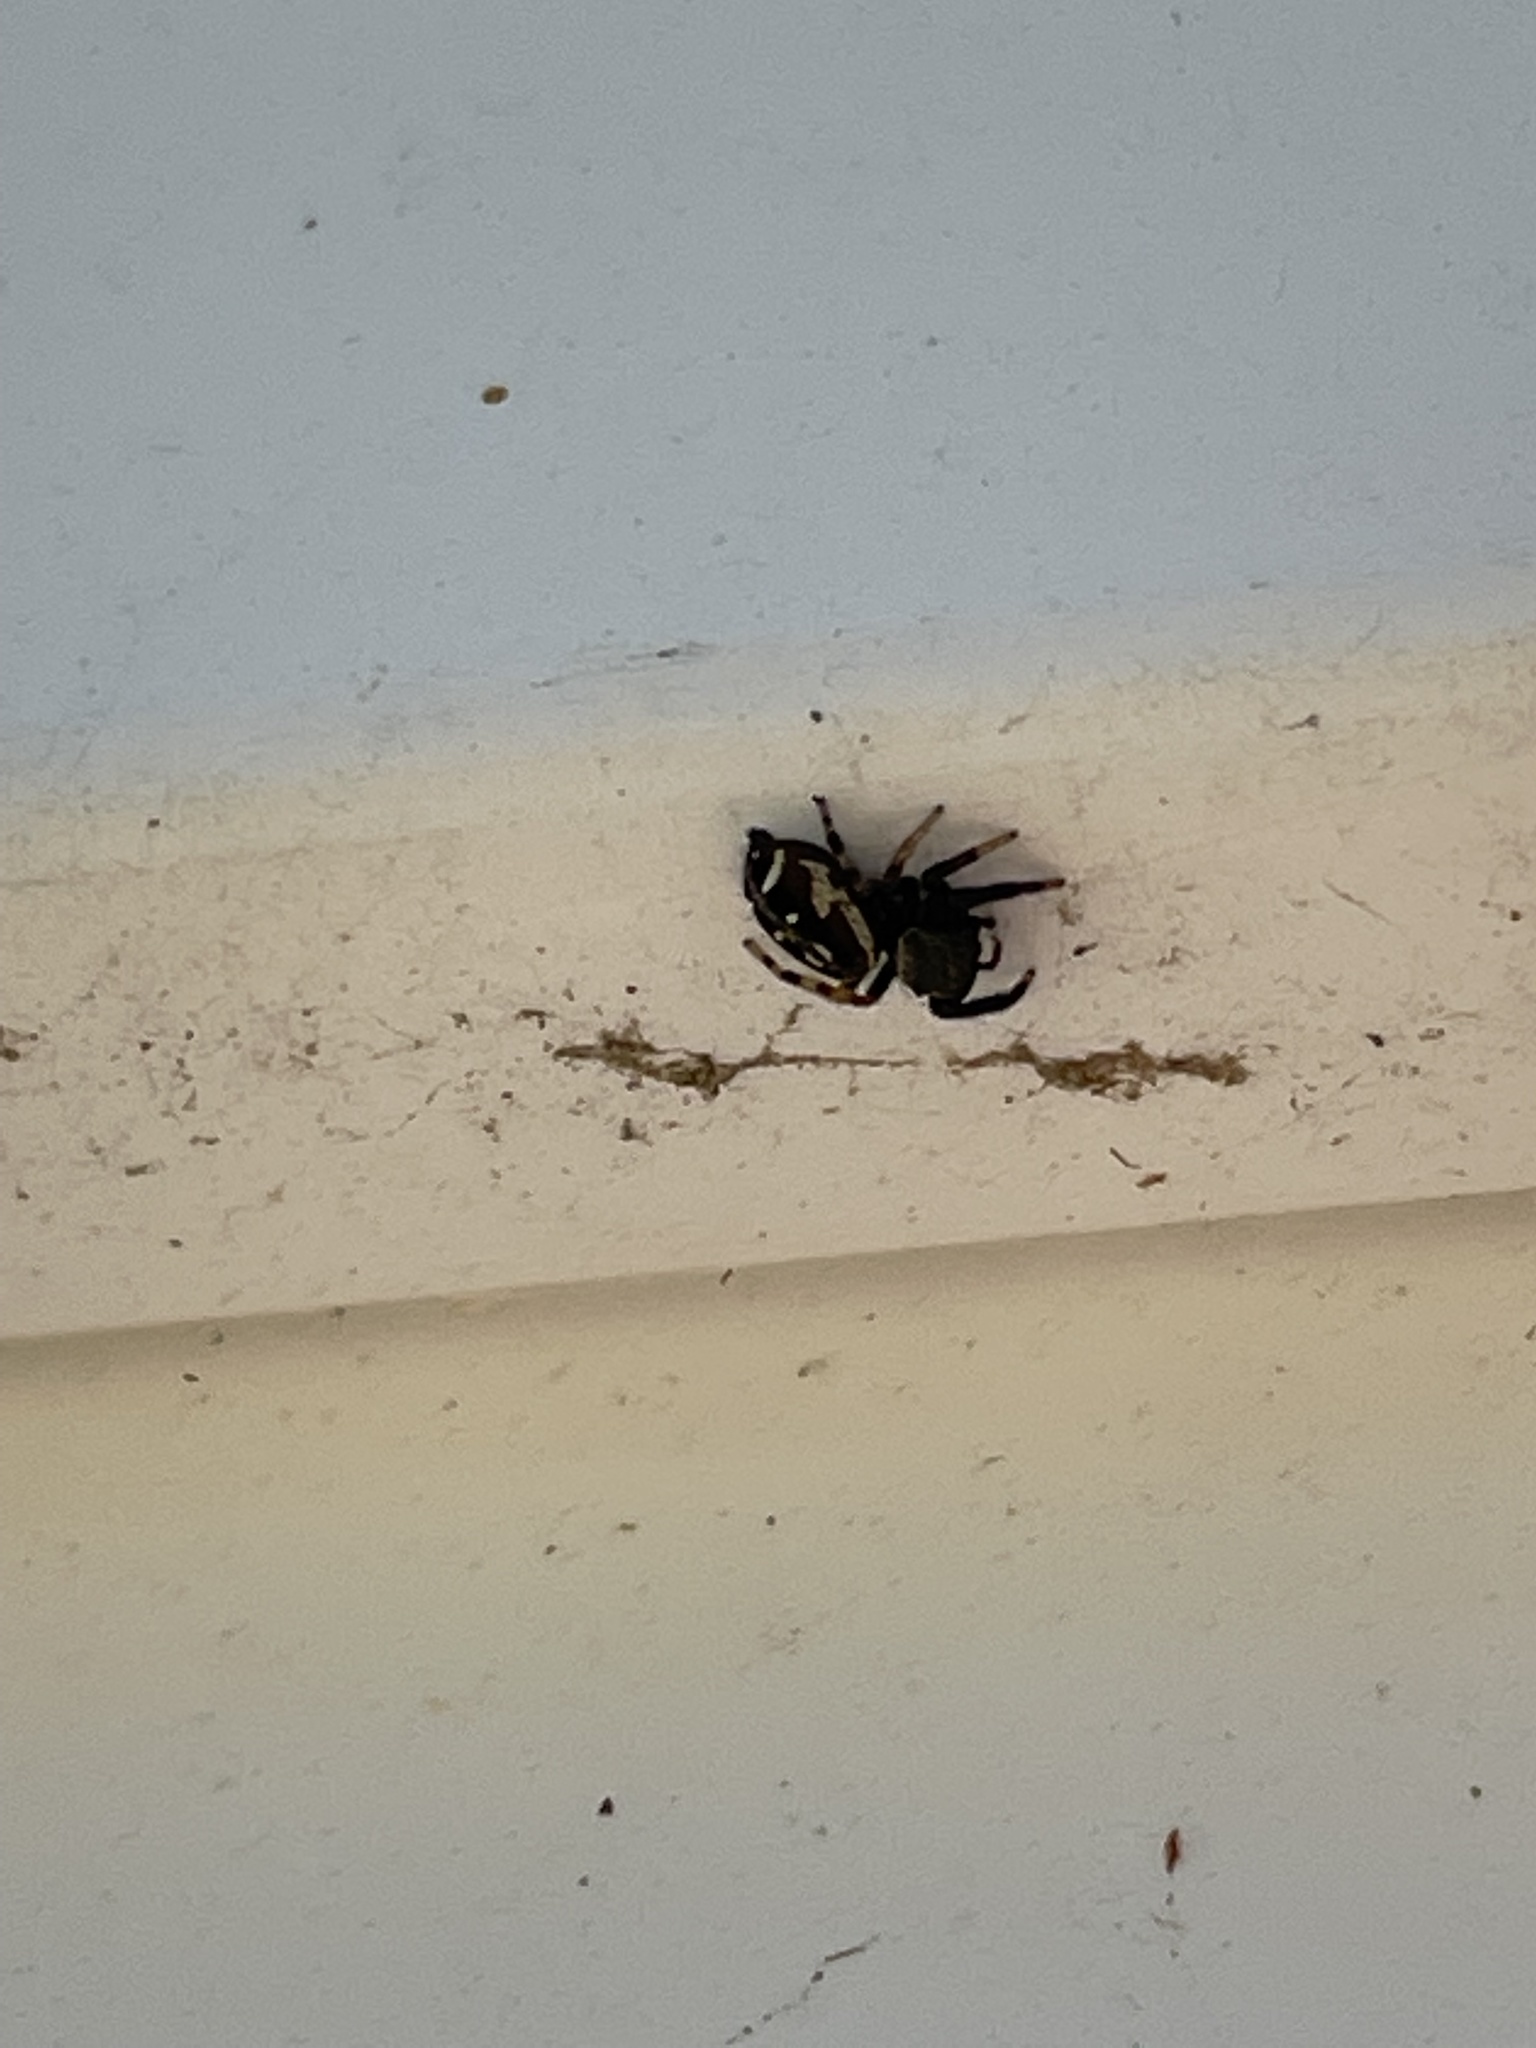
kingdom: Animalia
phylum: Arthropoda
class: Arachnida
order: Araneae
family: Salticidae
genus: Paraphidippus
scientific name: Paraphidippus aurantius
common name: Jumping spiders
